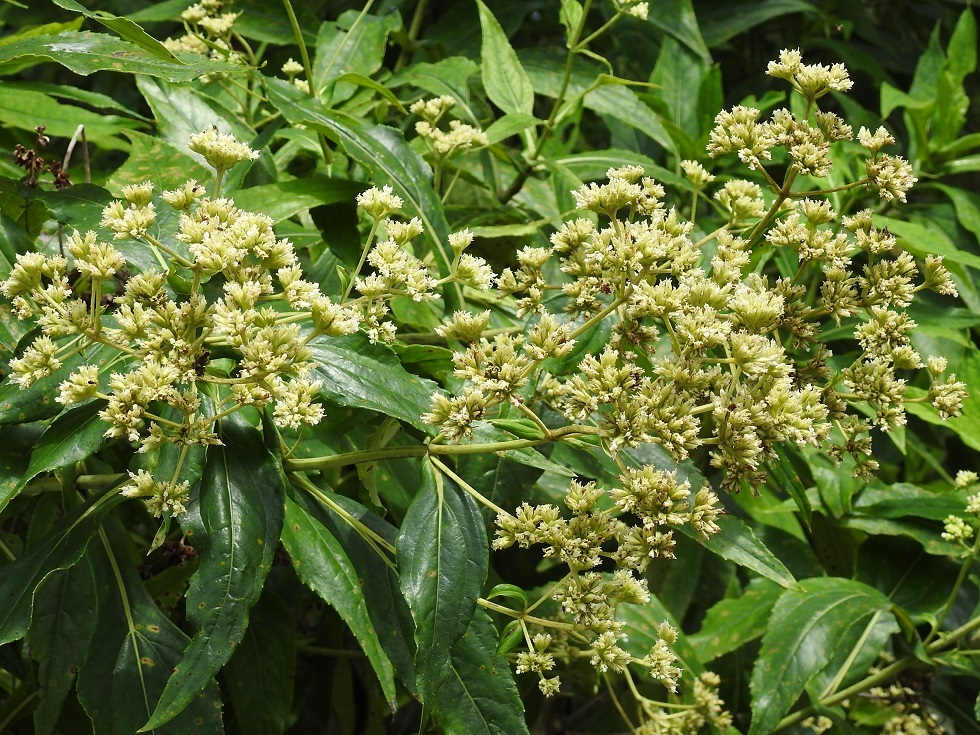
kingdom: Plantae
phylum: Tracheophyta
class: Magnoliopsida
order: Asterales
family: Asteraceae
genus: Desmanthodium
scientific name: Desmanthodium perfoliatum
